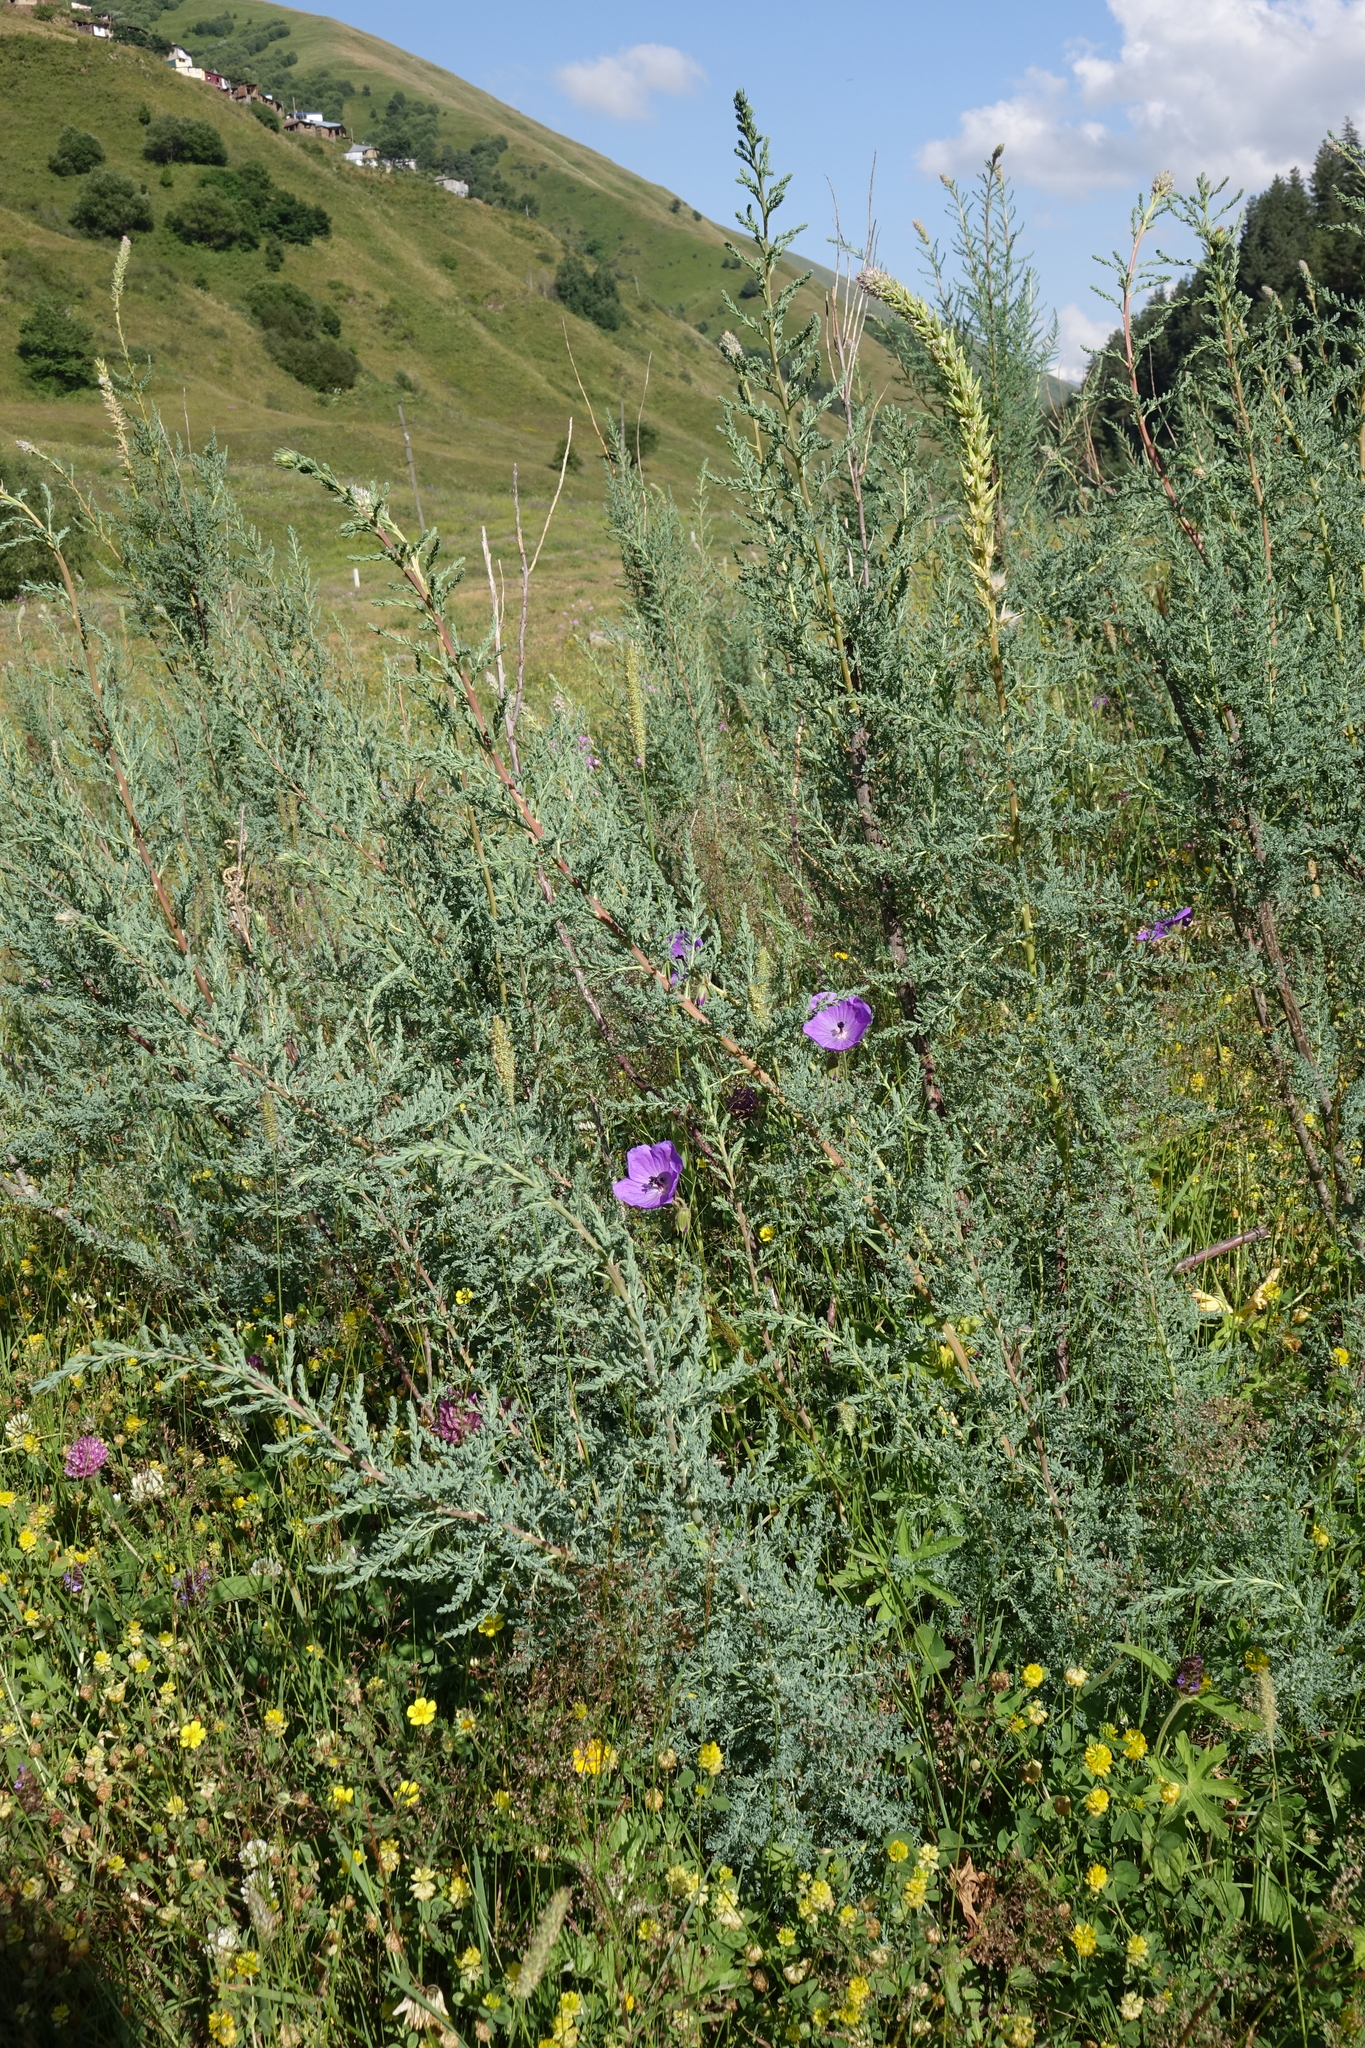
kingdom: Plantae
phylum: Tracheophyta
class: Magnoliopsida
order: Caryophyllales
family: Tamaricaceae
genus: Myricaria
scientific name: Myricaria bracteata
